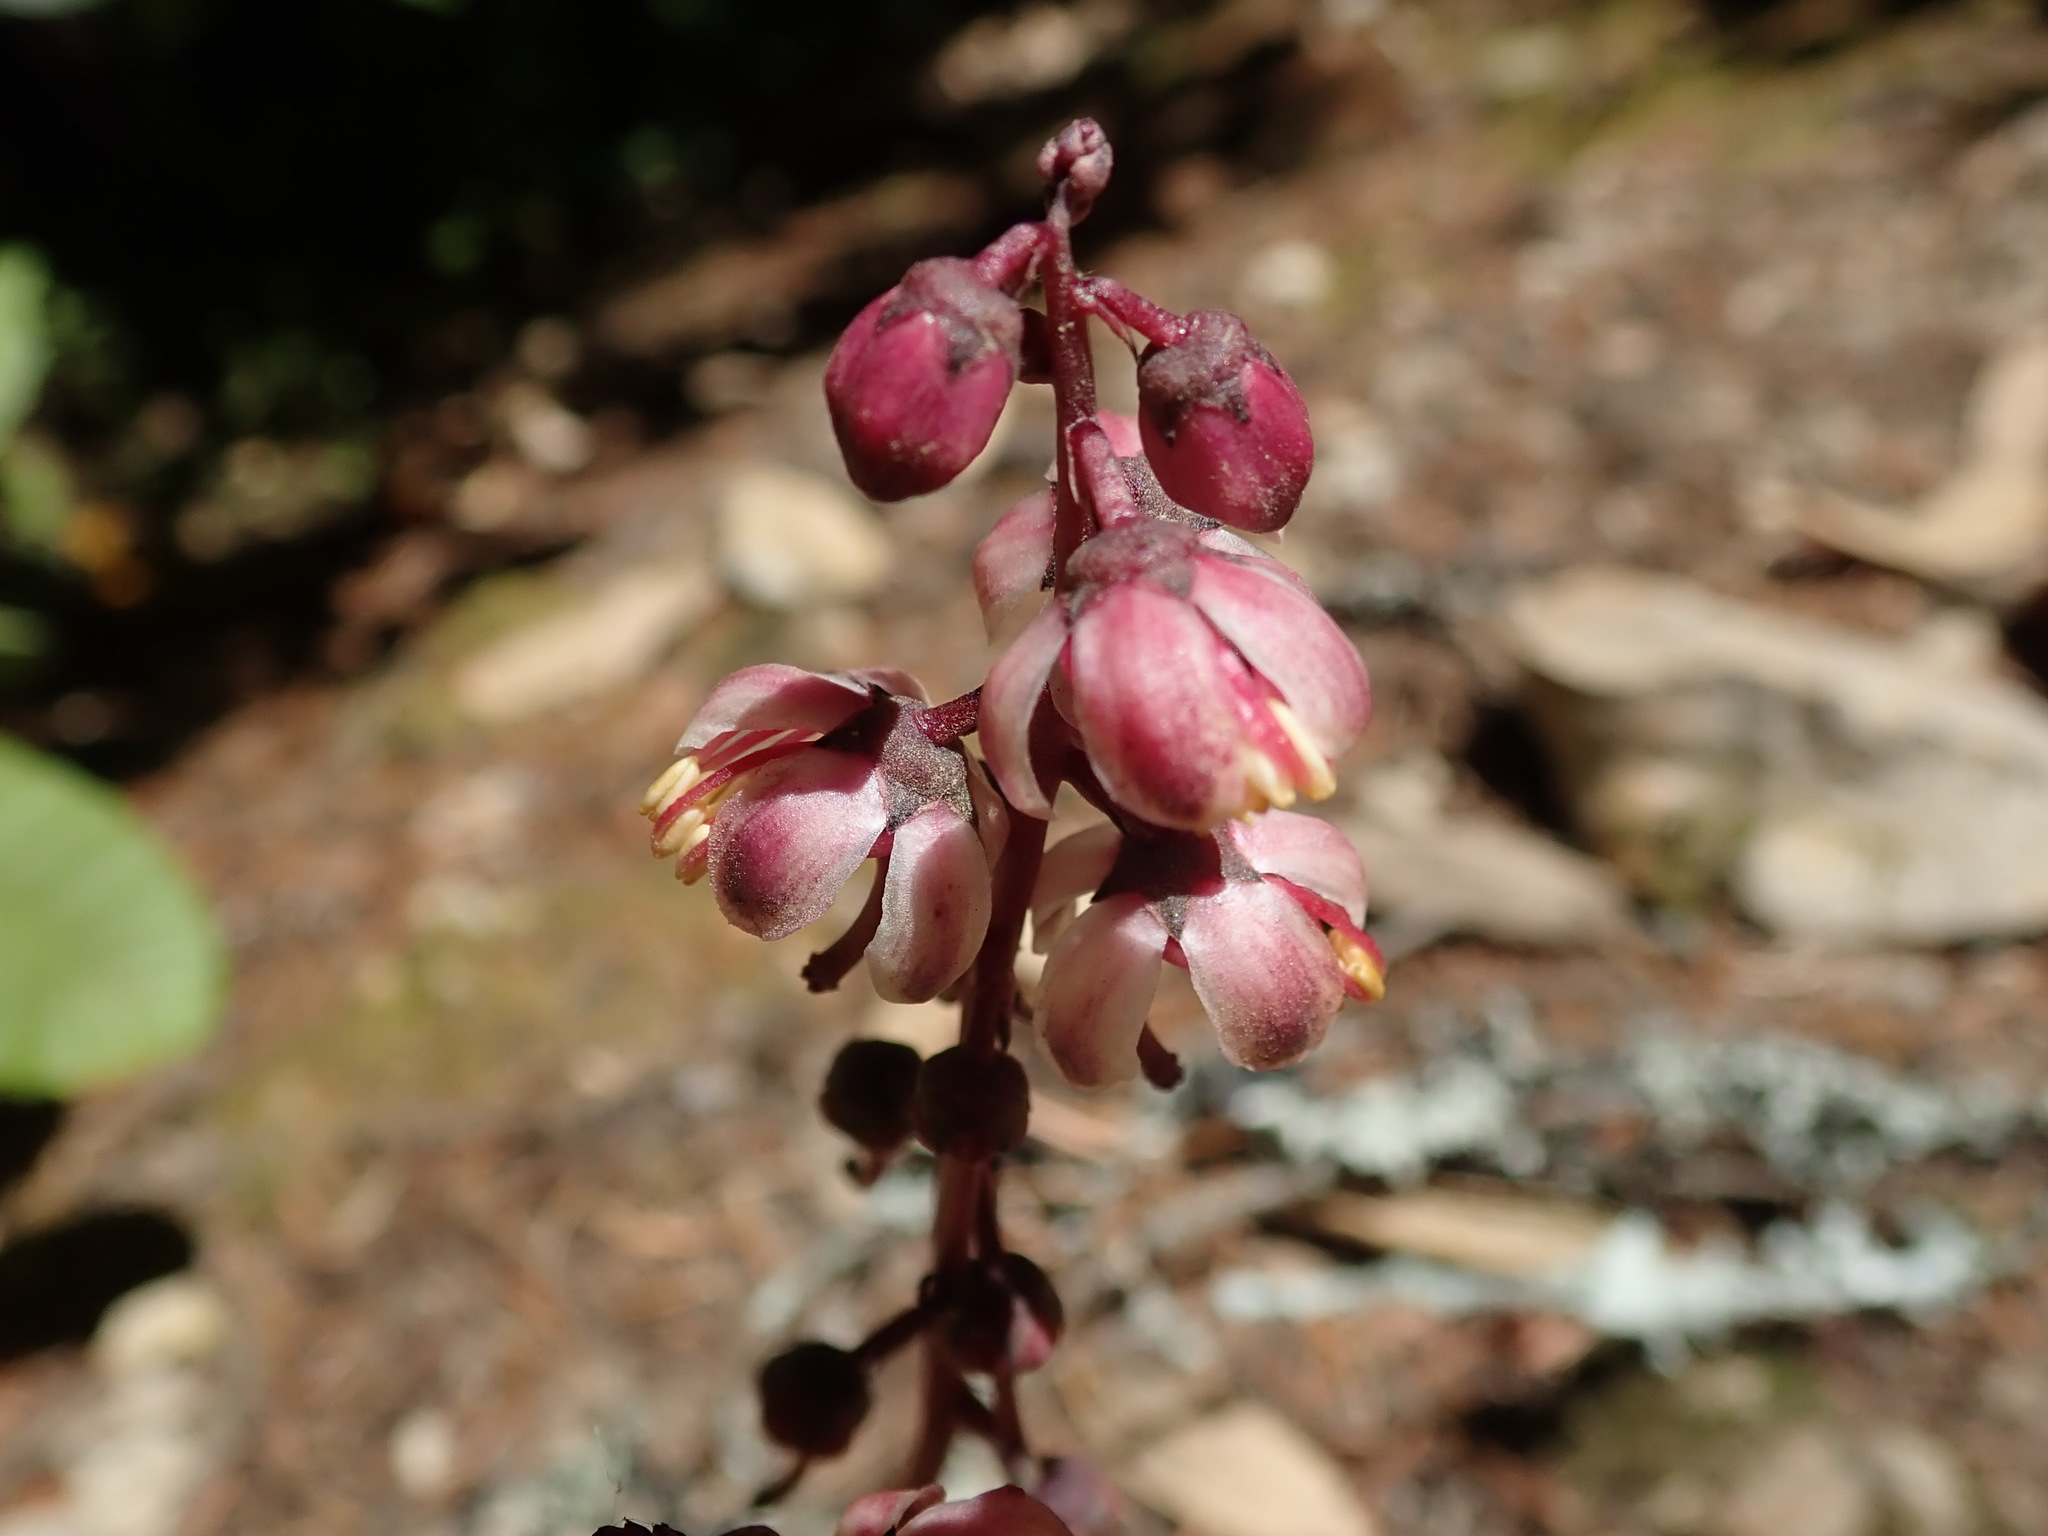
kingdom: Plantae
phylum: Tracheophyta
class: Magnoliopsida
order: Ericales
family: Ericaceae
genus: Pyrola
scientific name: Pyrola aphylla
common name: Leafless wintergreen
